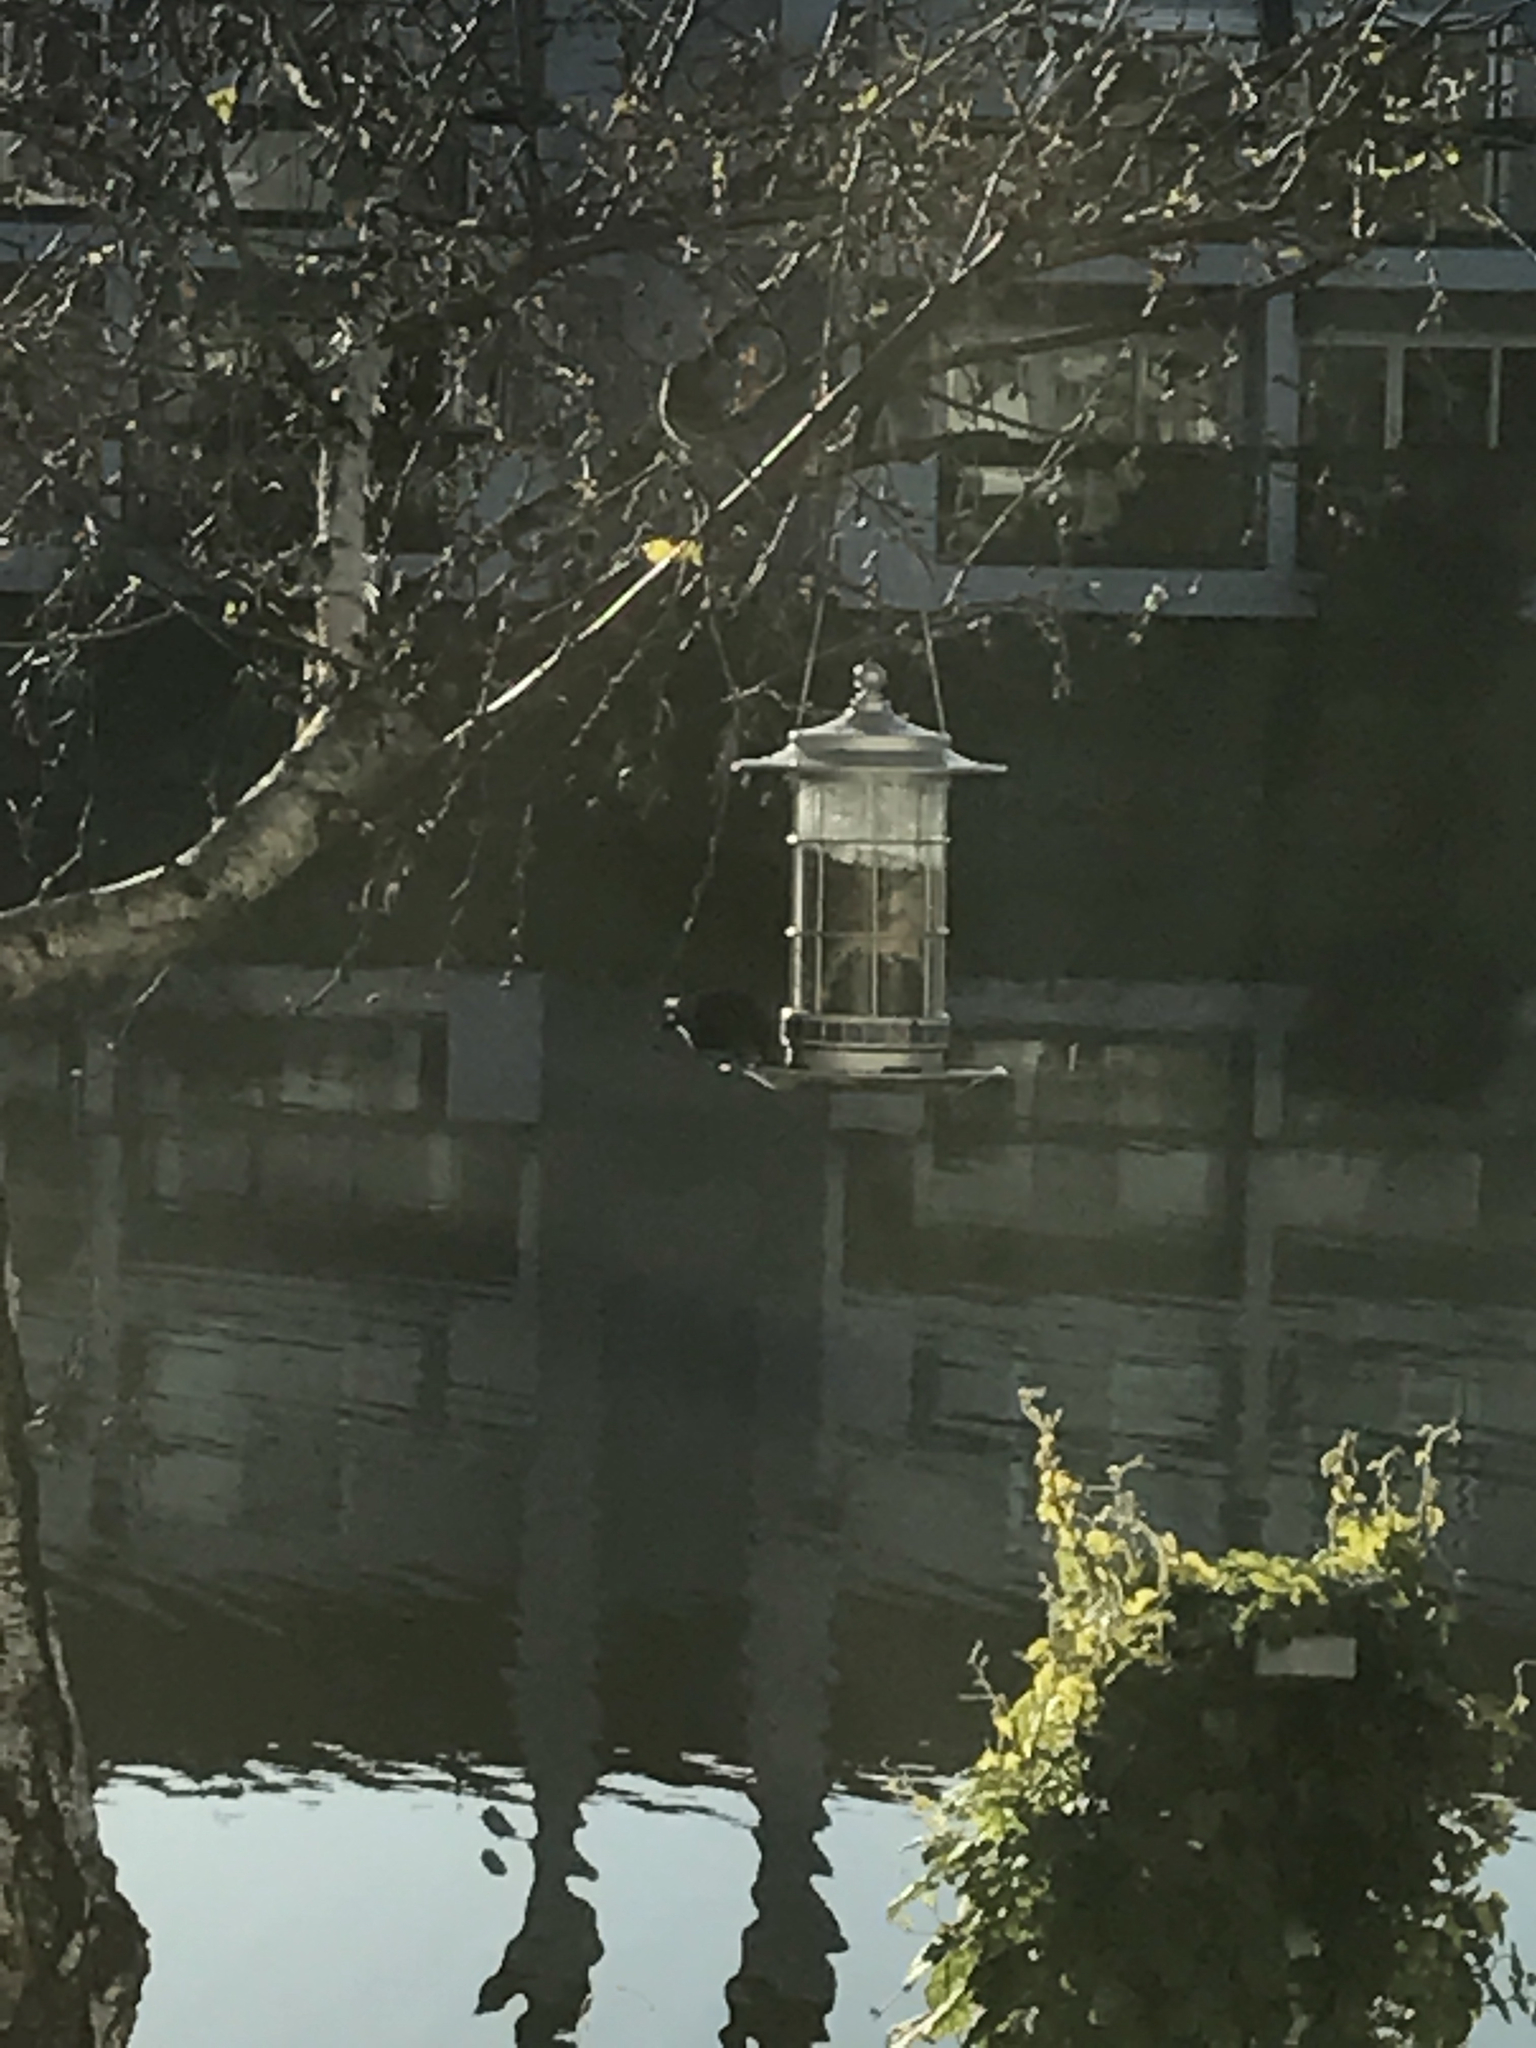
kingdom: Animalia
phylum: Chordata
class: Aves
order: Passeriformes
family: Icteridae
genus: Molothrus
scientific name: Molothrus ater
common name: Brown-headed cowbird
